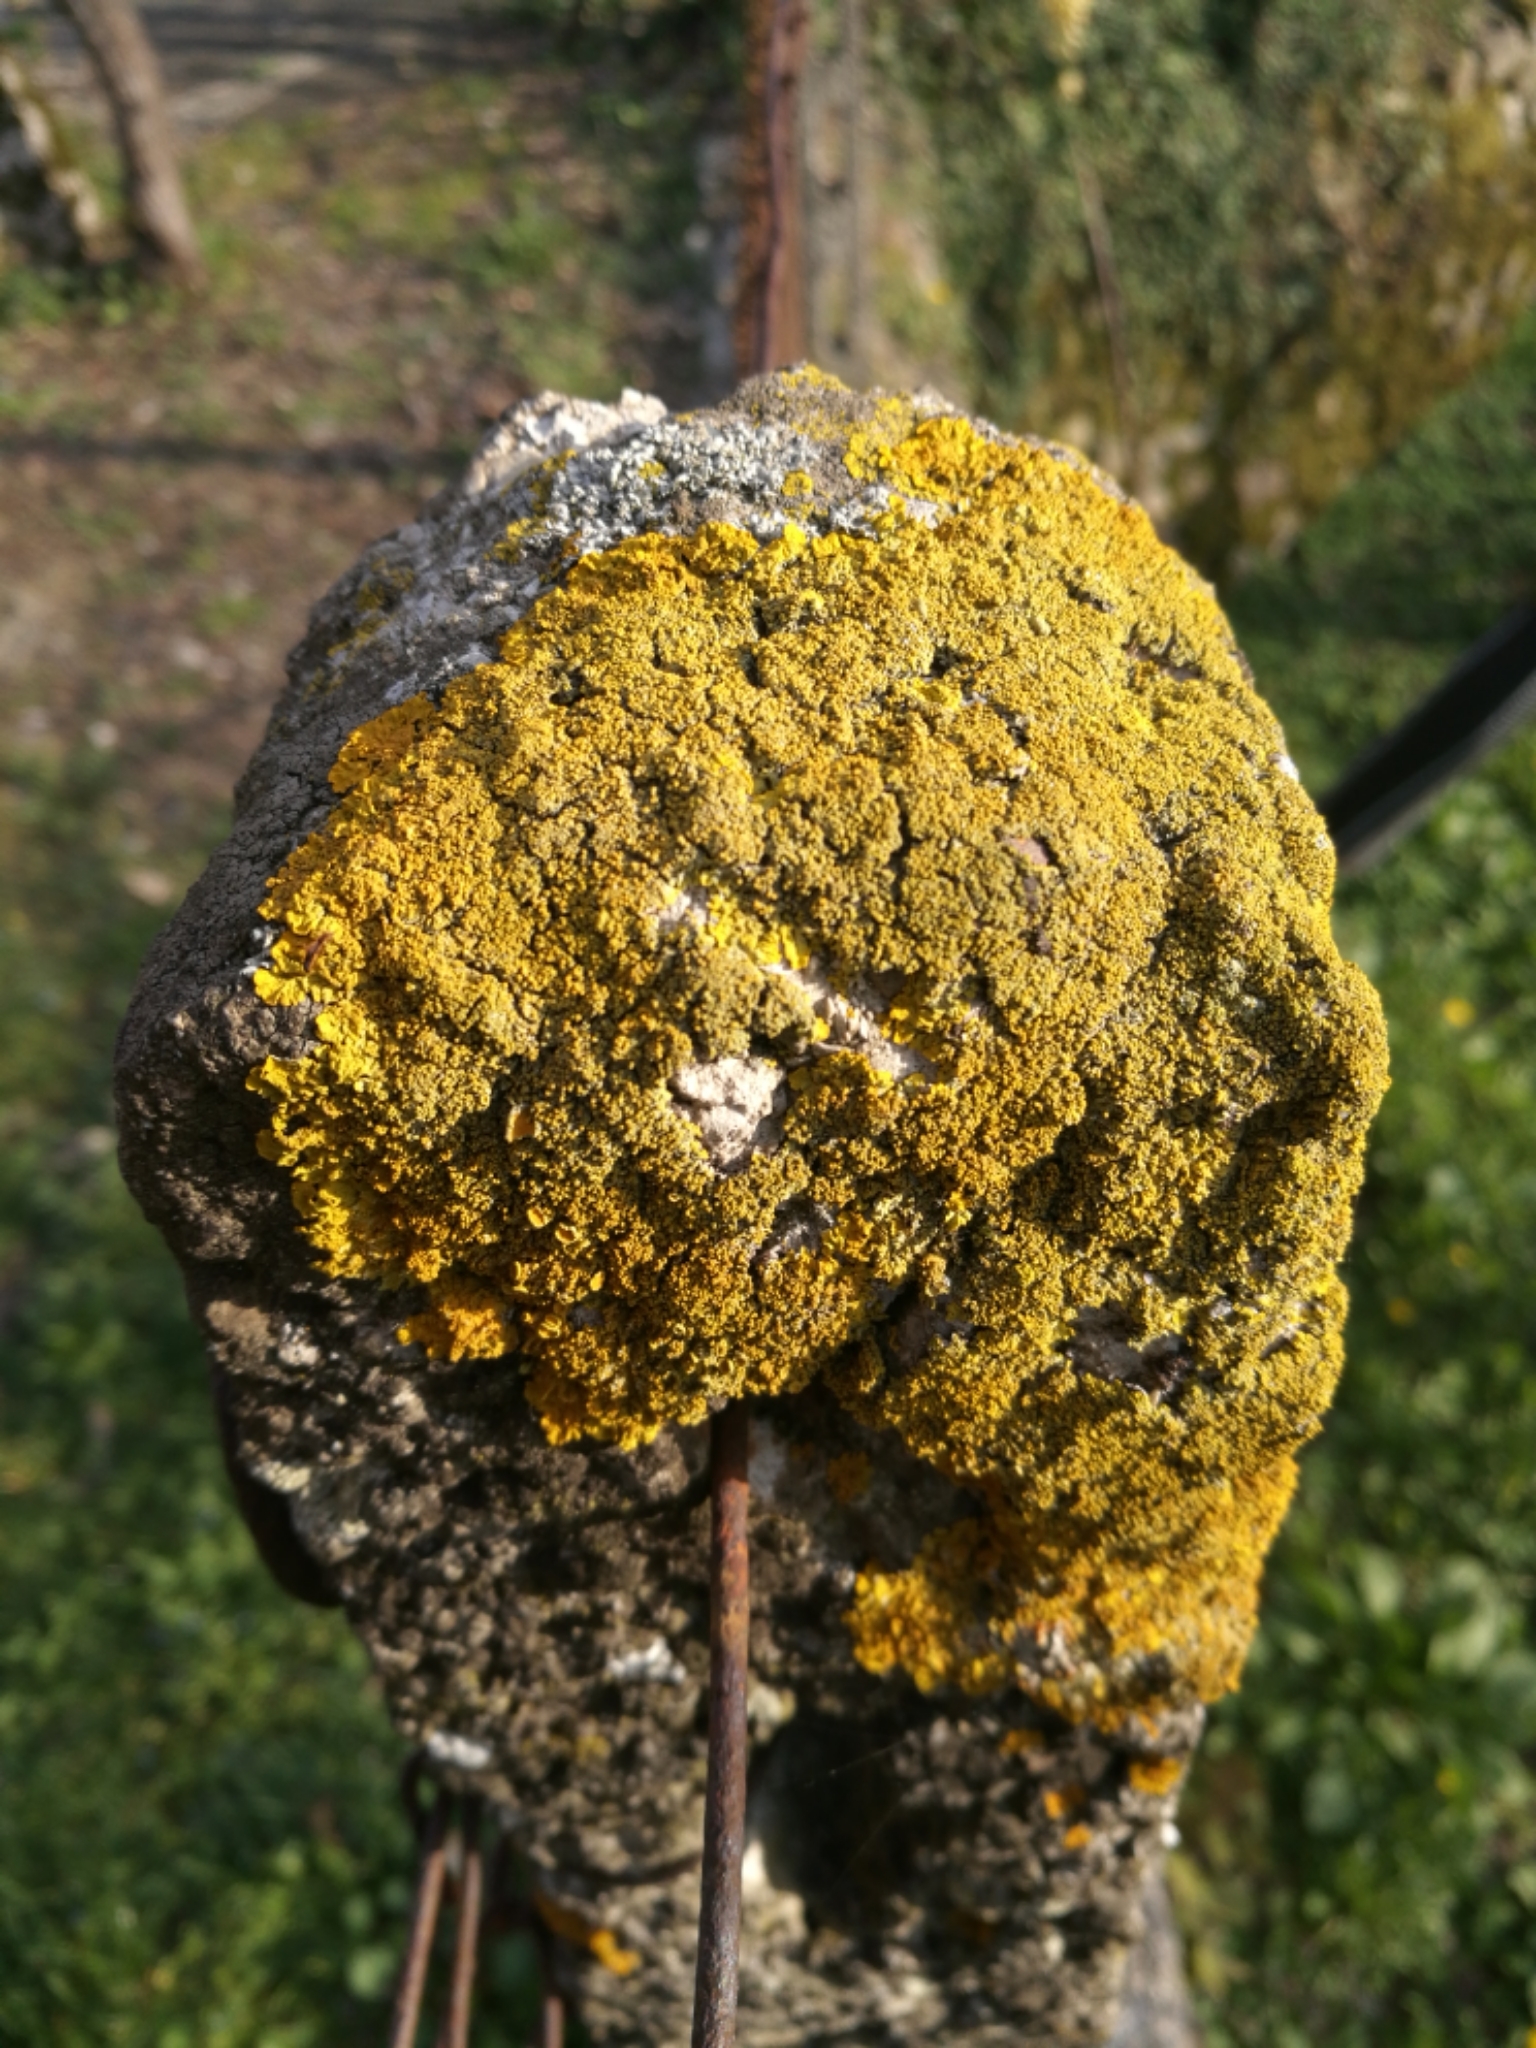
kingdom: Fungi
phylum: Ascomycota
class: Lecanoromycetes
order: Teloschistales
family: Teloschistaceae
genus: Xanthoria
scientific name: Xanthoria calcicola
